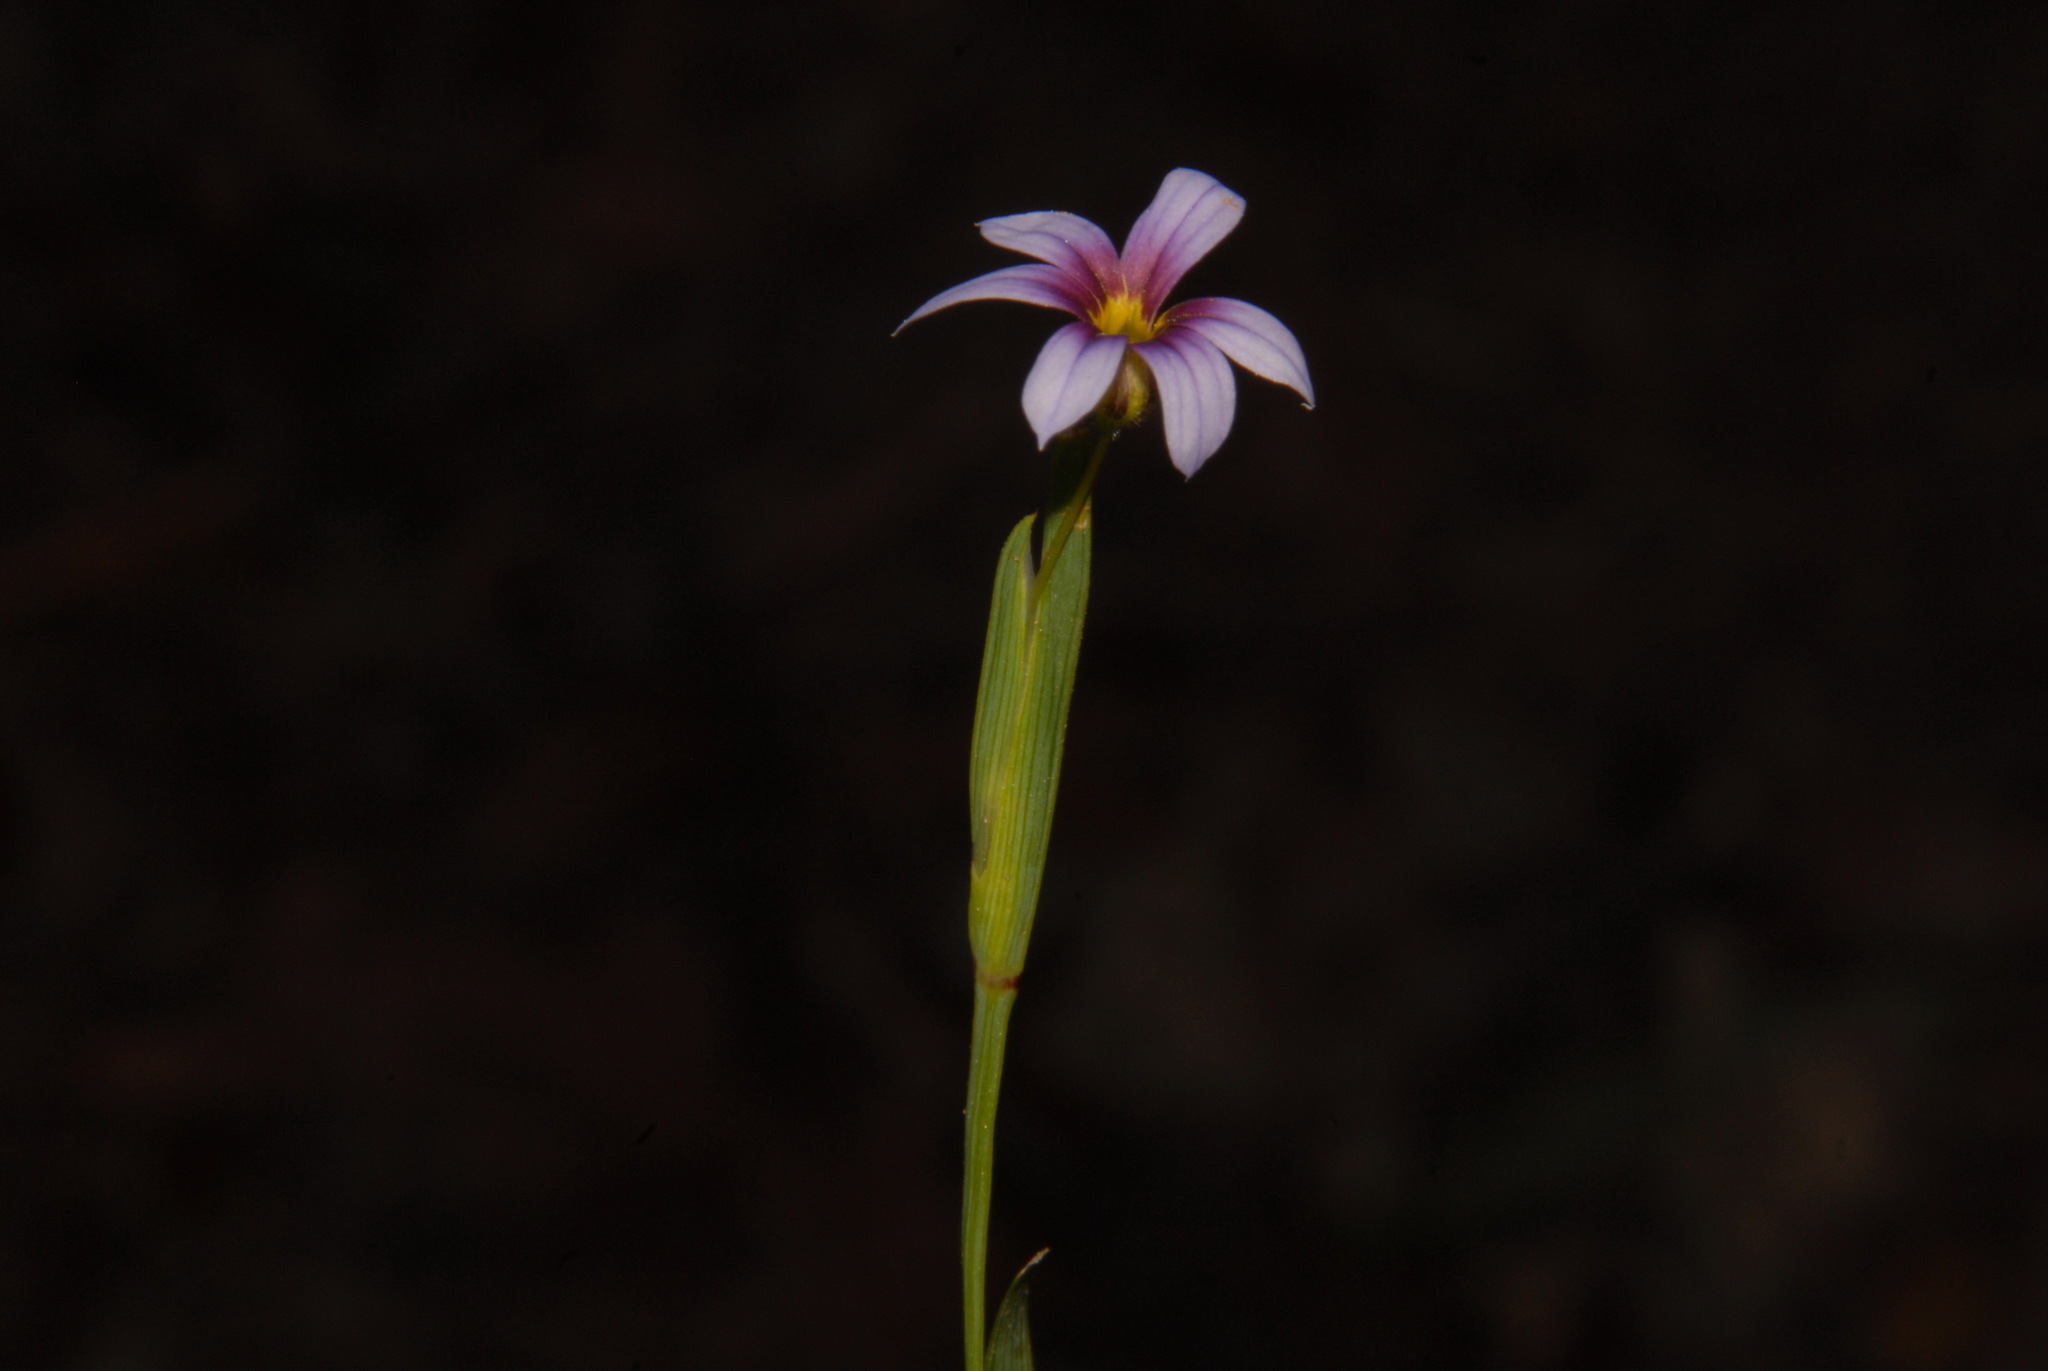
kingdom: Plantae
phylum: Tracheophyta
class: Liliopsida
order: Asparagales
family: Iridaceae
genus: Sisyrinchium
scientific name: Sisyrinchium micranthum
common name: Bermuda pigroot
